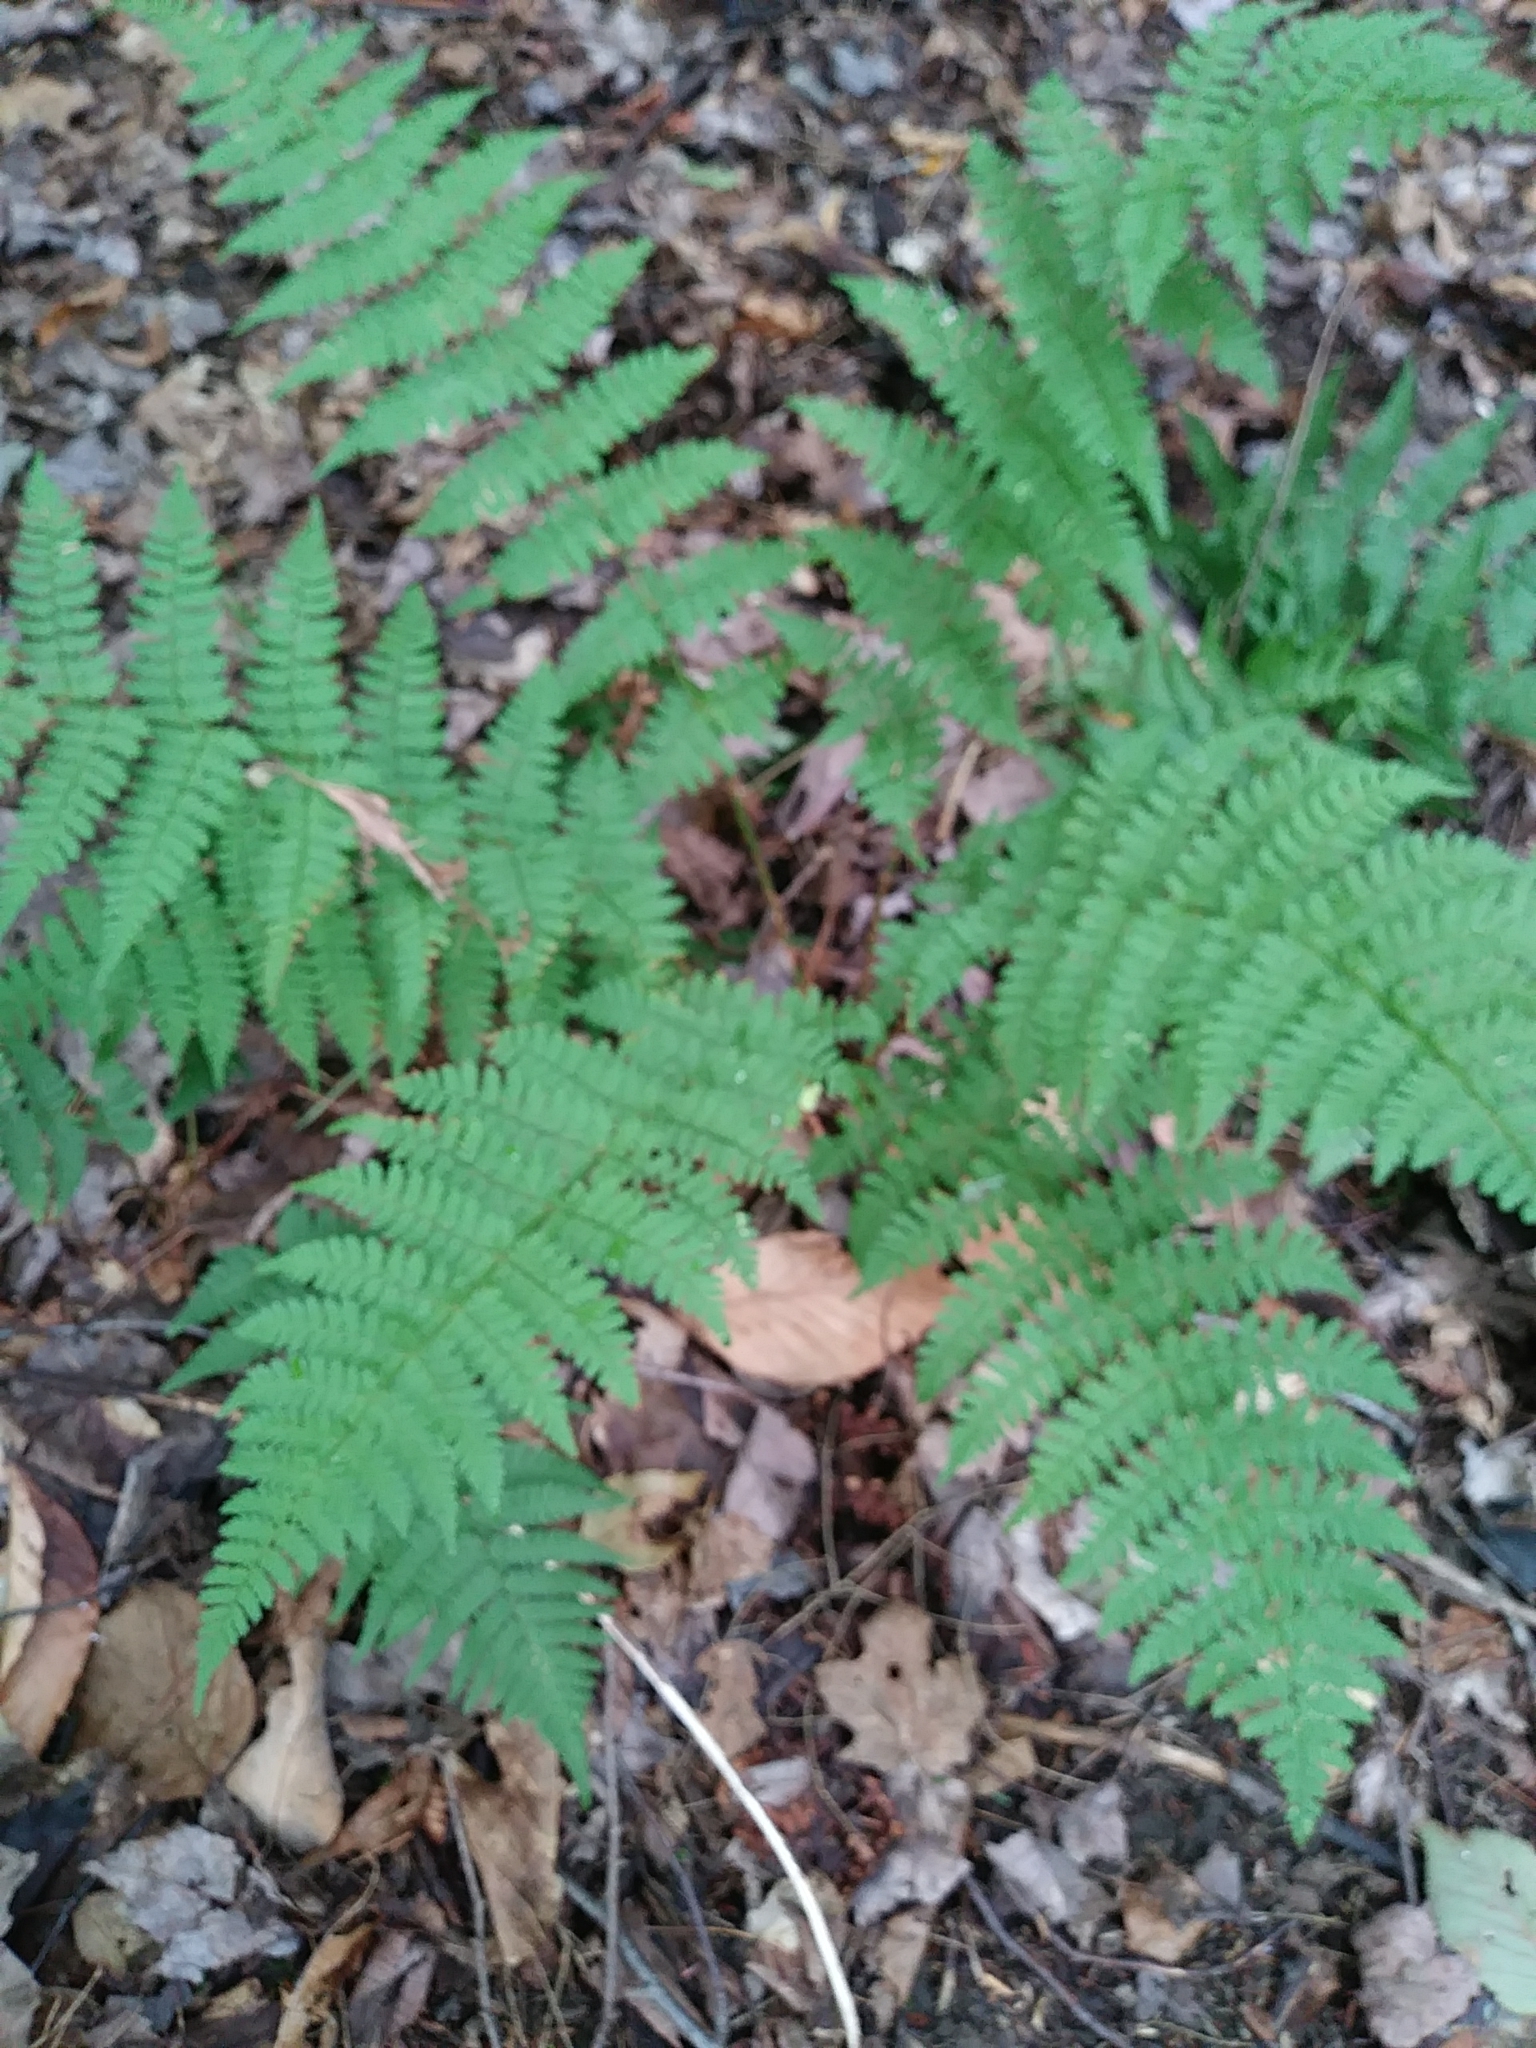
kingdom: Plantae
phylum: Tracheophyta
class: Polypodiopsida
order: Polypodiales
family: Dryopteridaceae
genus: Dryopteris
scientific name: Dryopteris intermedia
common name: Evergreen wood fern
